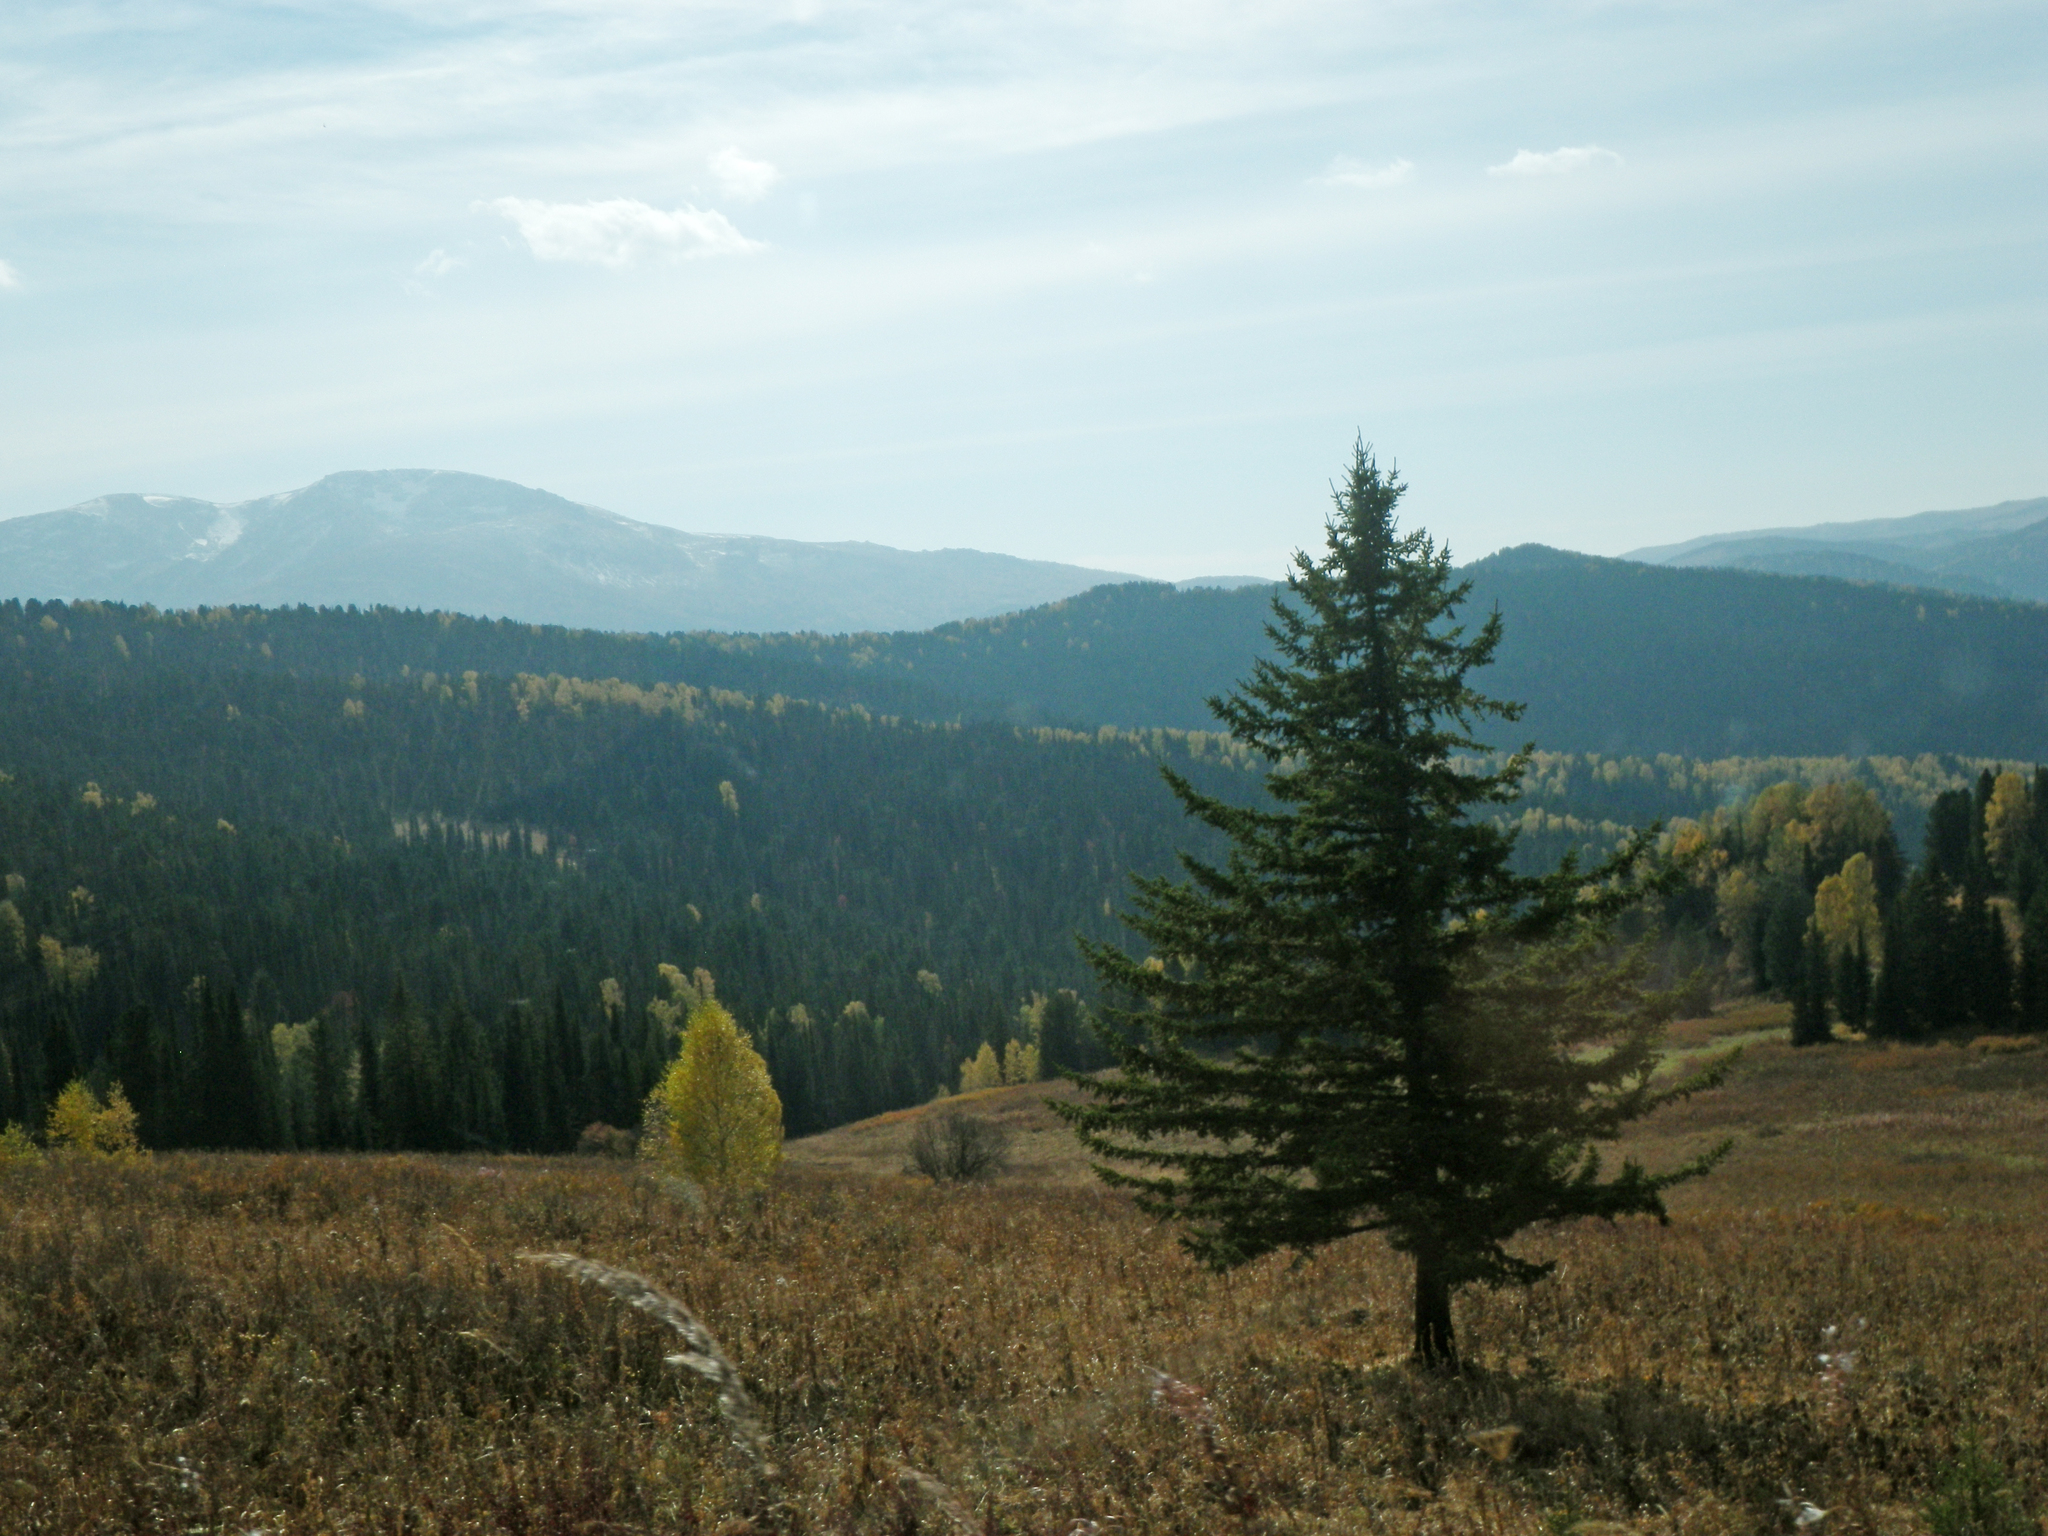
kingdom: Plantae
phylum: Tracheophyta
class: Pinopsida
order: Pinales
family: Pinaceae
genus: Picea
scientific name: Picea obovata
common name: Siberian spruce
